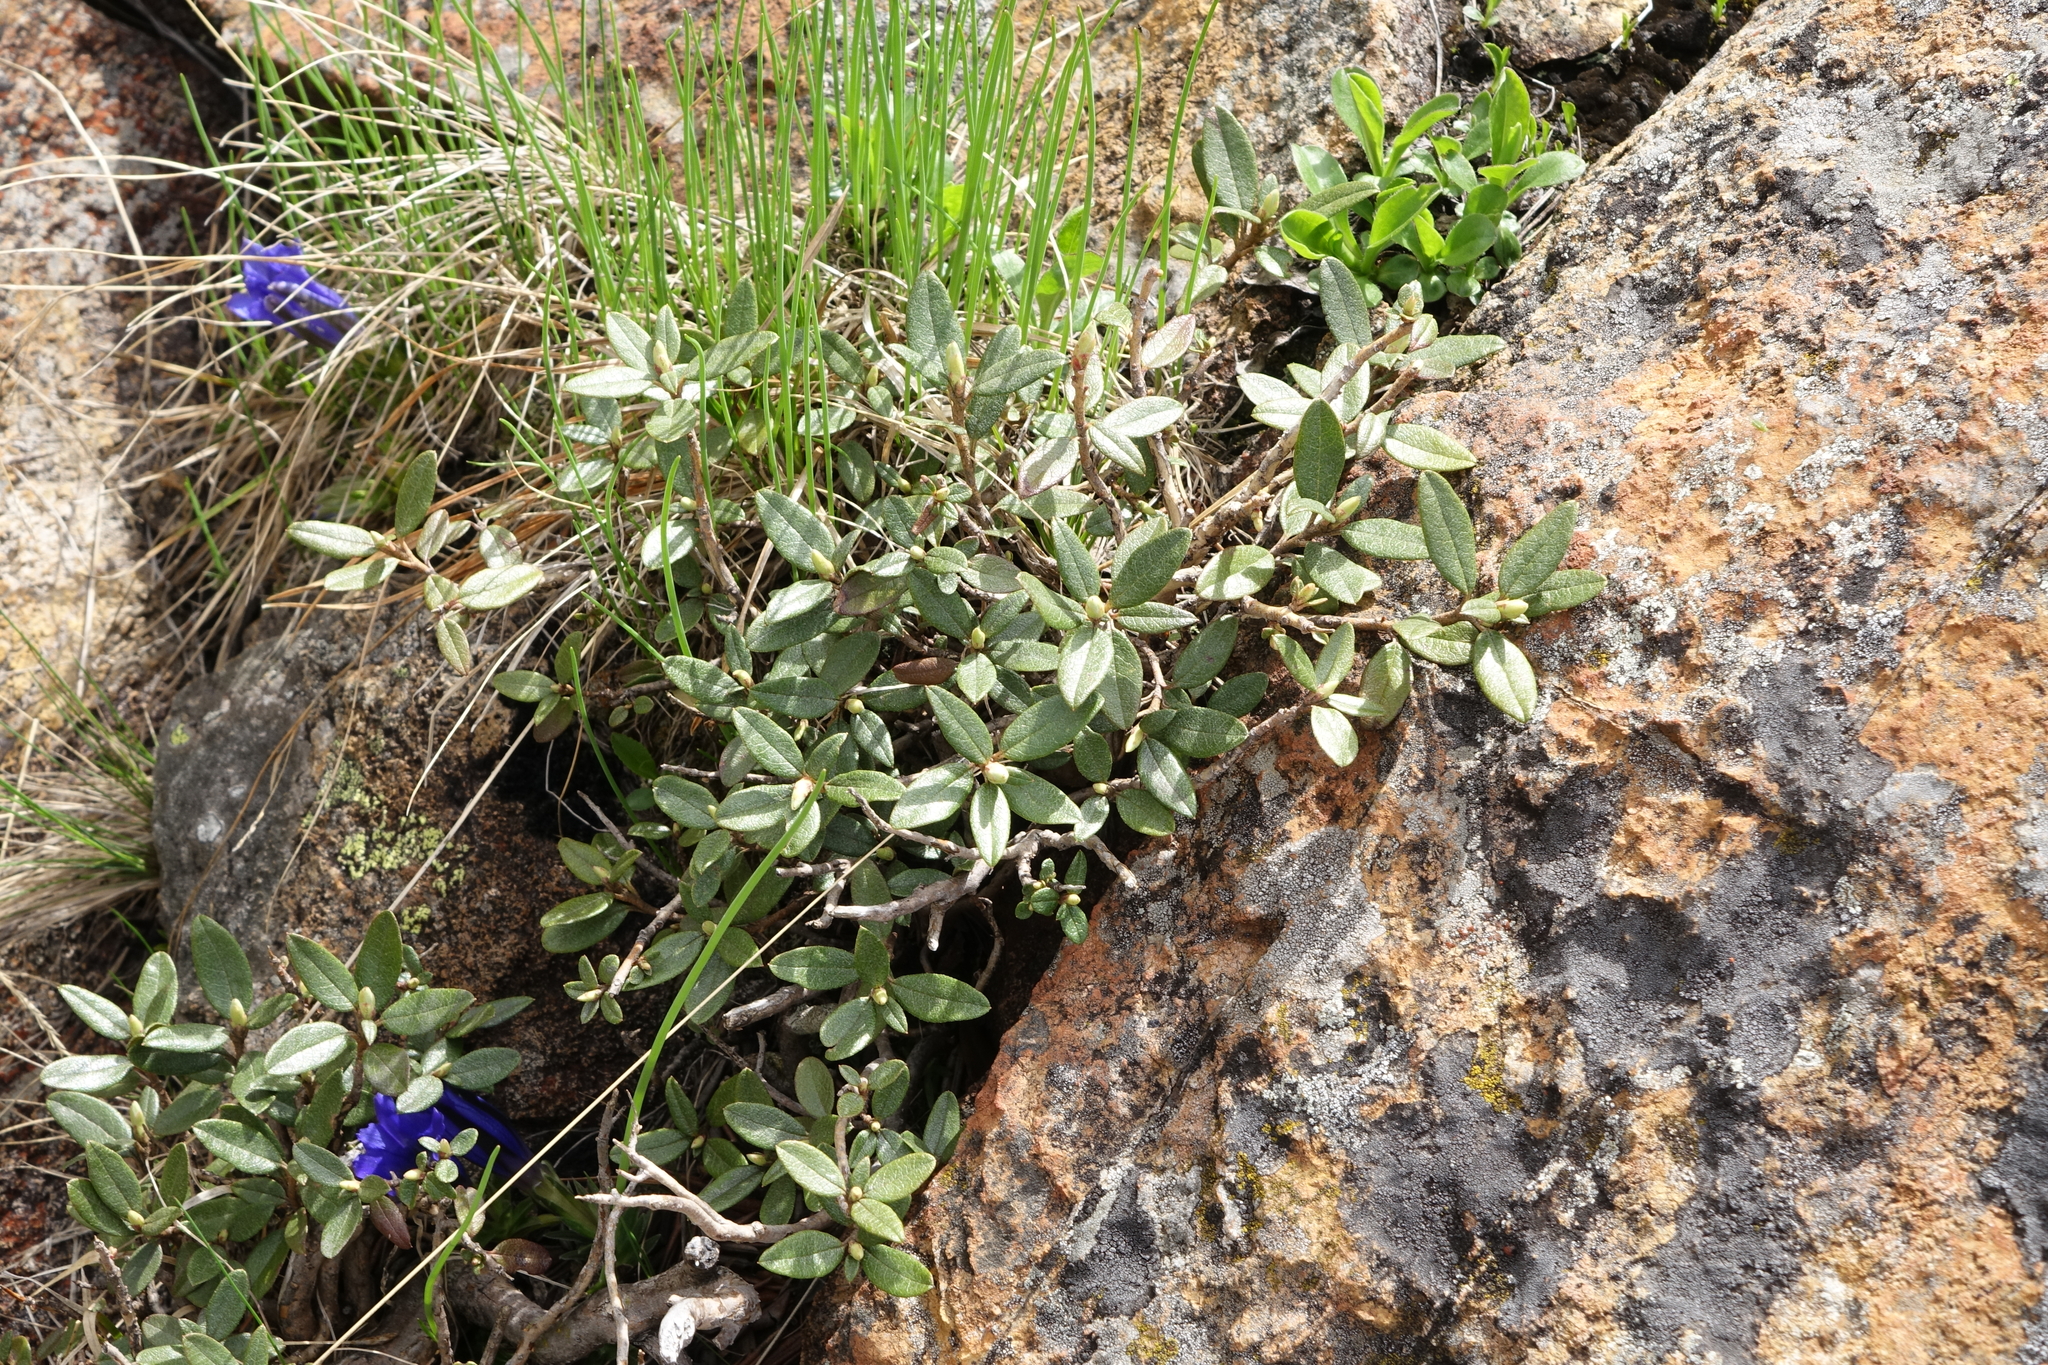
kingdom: Plantae
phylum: Tracheophyta
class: Magnoliopsida
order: Ericales
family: Ericaceae
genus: Rhododendron
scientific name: Rhododendron adamsii
